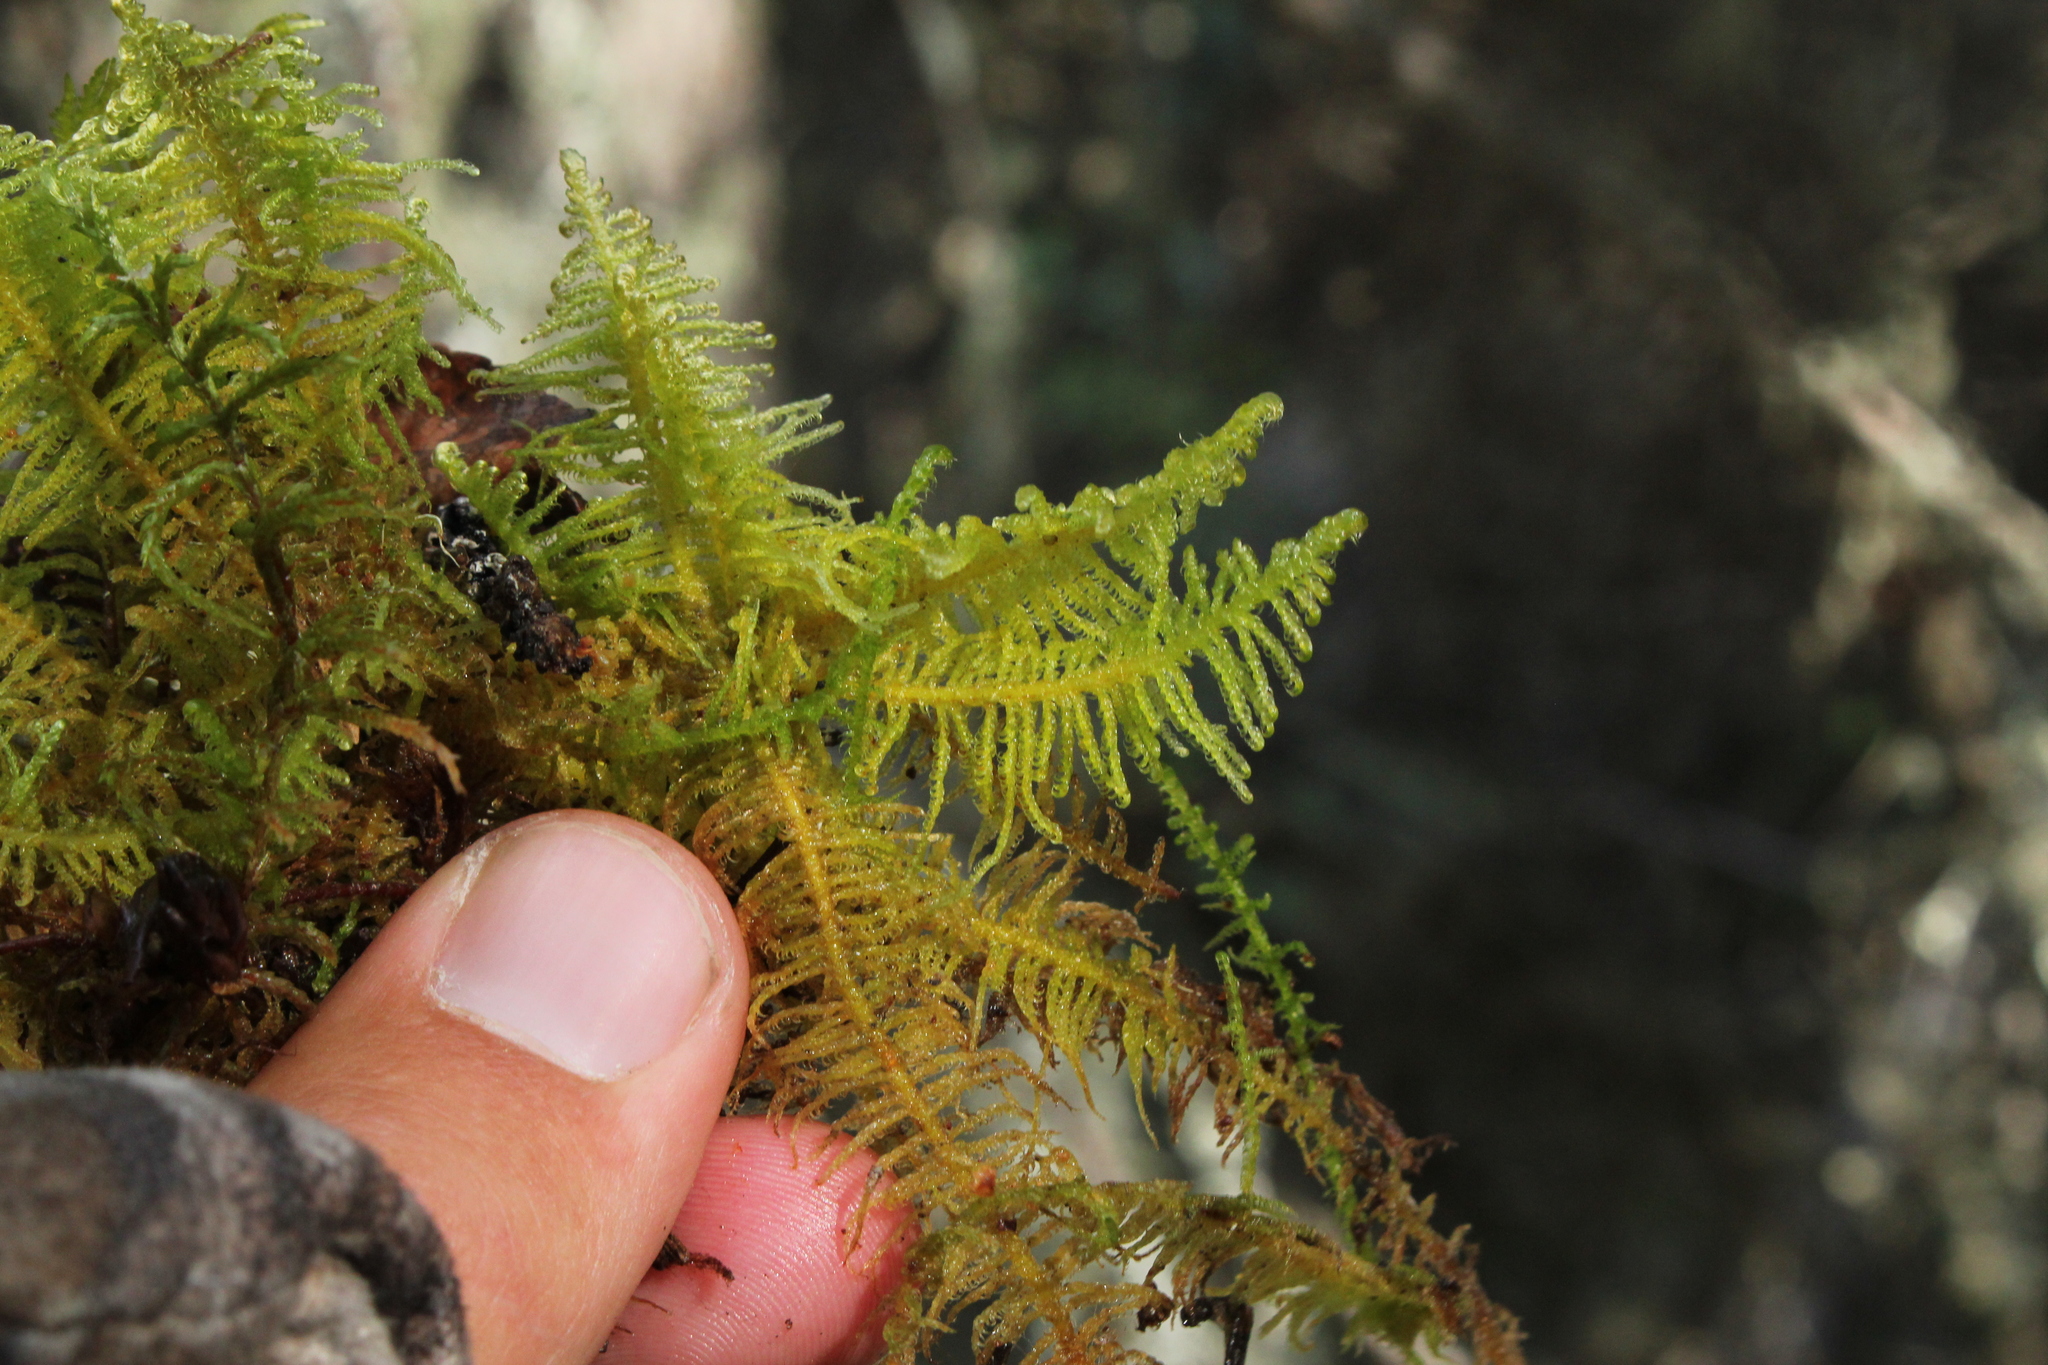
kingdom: Plantae
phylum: Bryophyta
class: Bryopsida
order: Hypnales
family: Pylaisiaceae
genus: Ptilium
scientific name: Ptilium crista-castrensis
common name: Knight's plume moss
